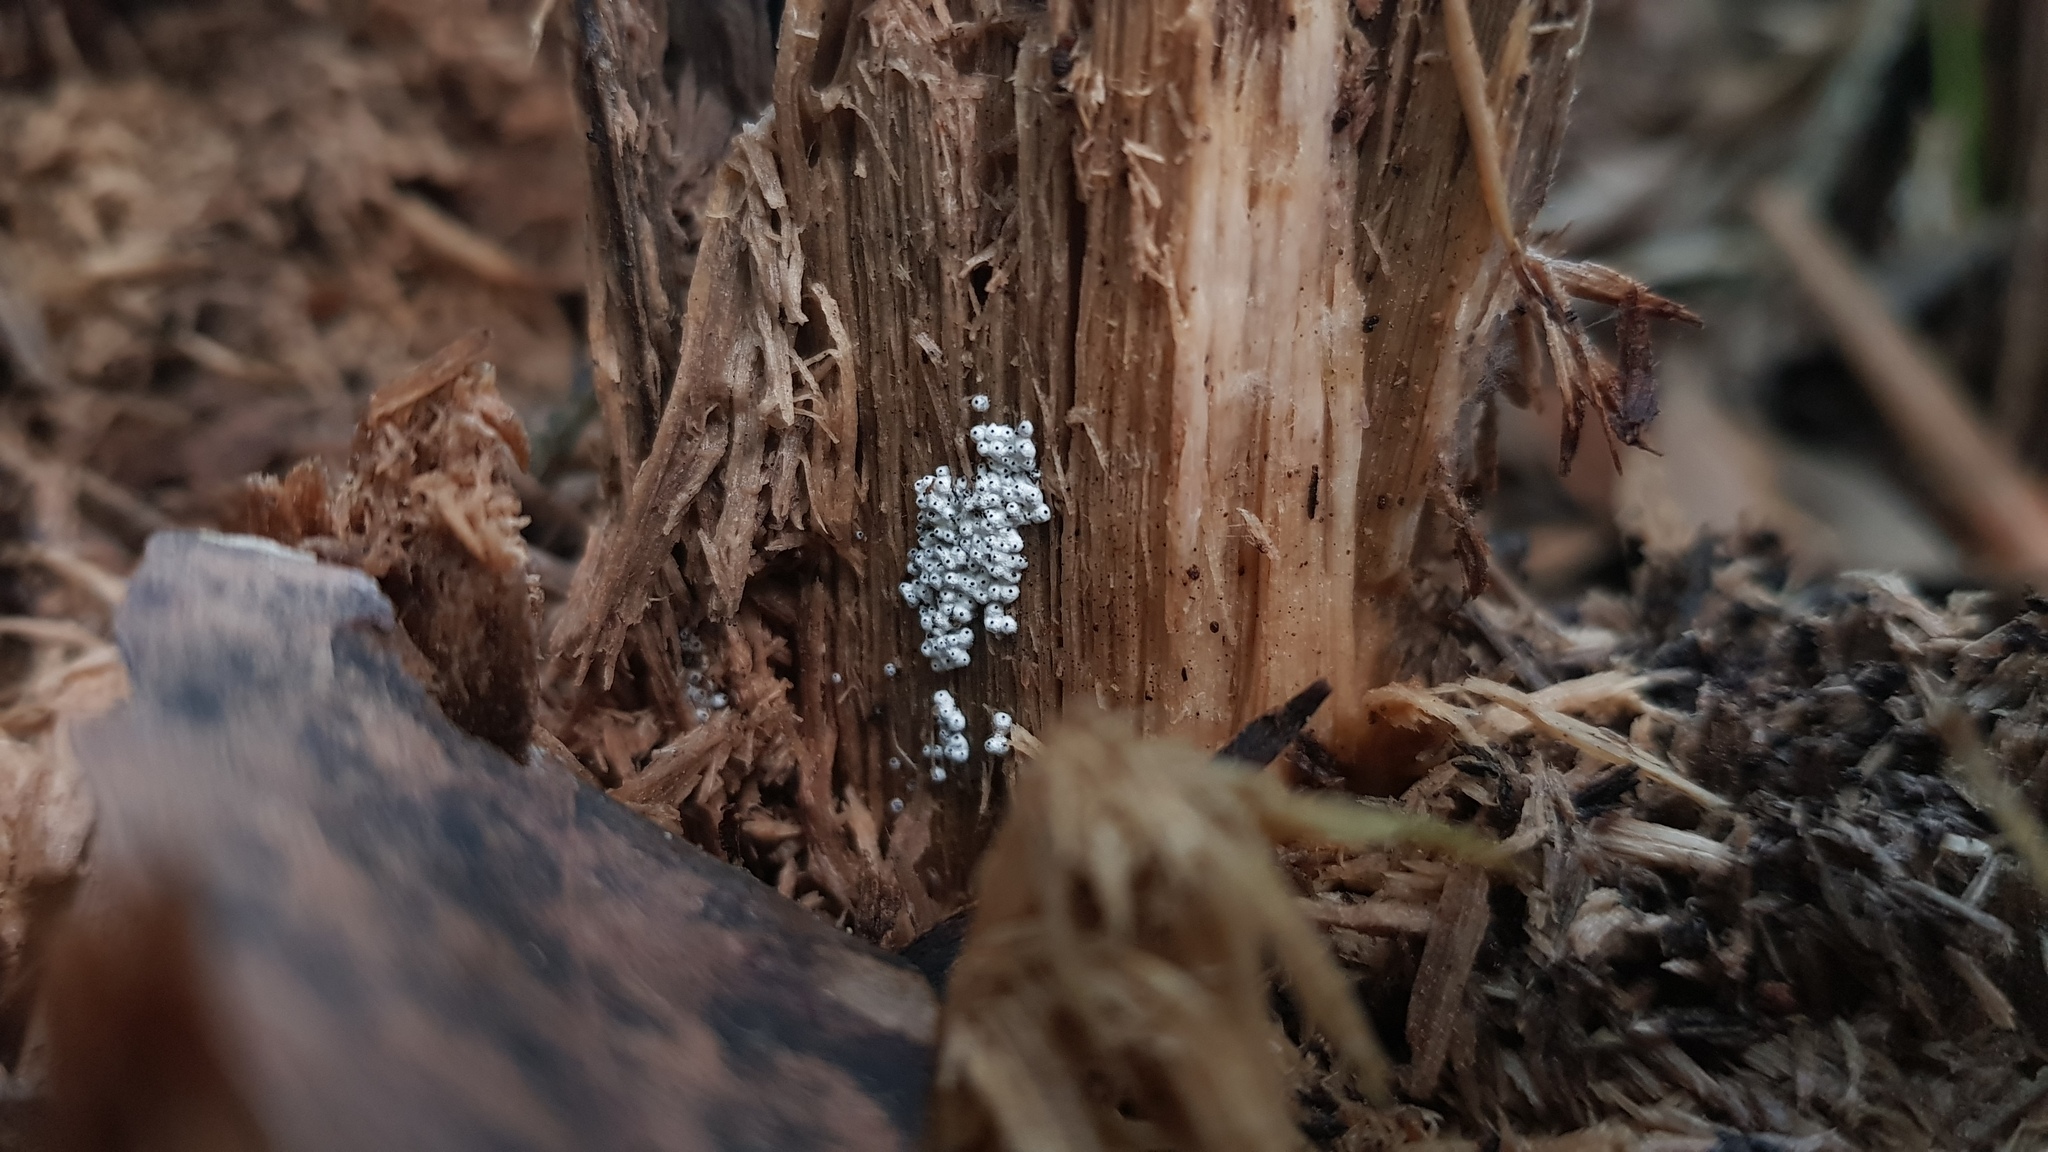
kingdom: Fungi
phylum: Ascomycota
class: Sordariomycetes
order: Sordariales
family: Lasiosphaeriaceae
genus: Lasiosphaeria
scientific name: Lasiosphaeria ovina
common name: Woolly woodwart
